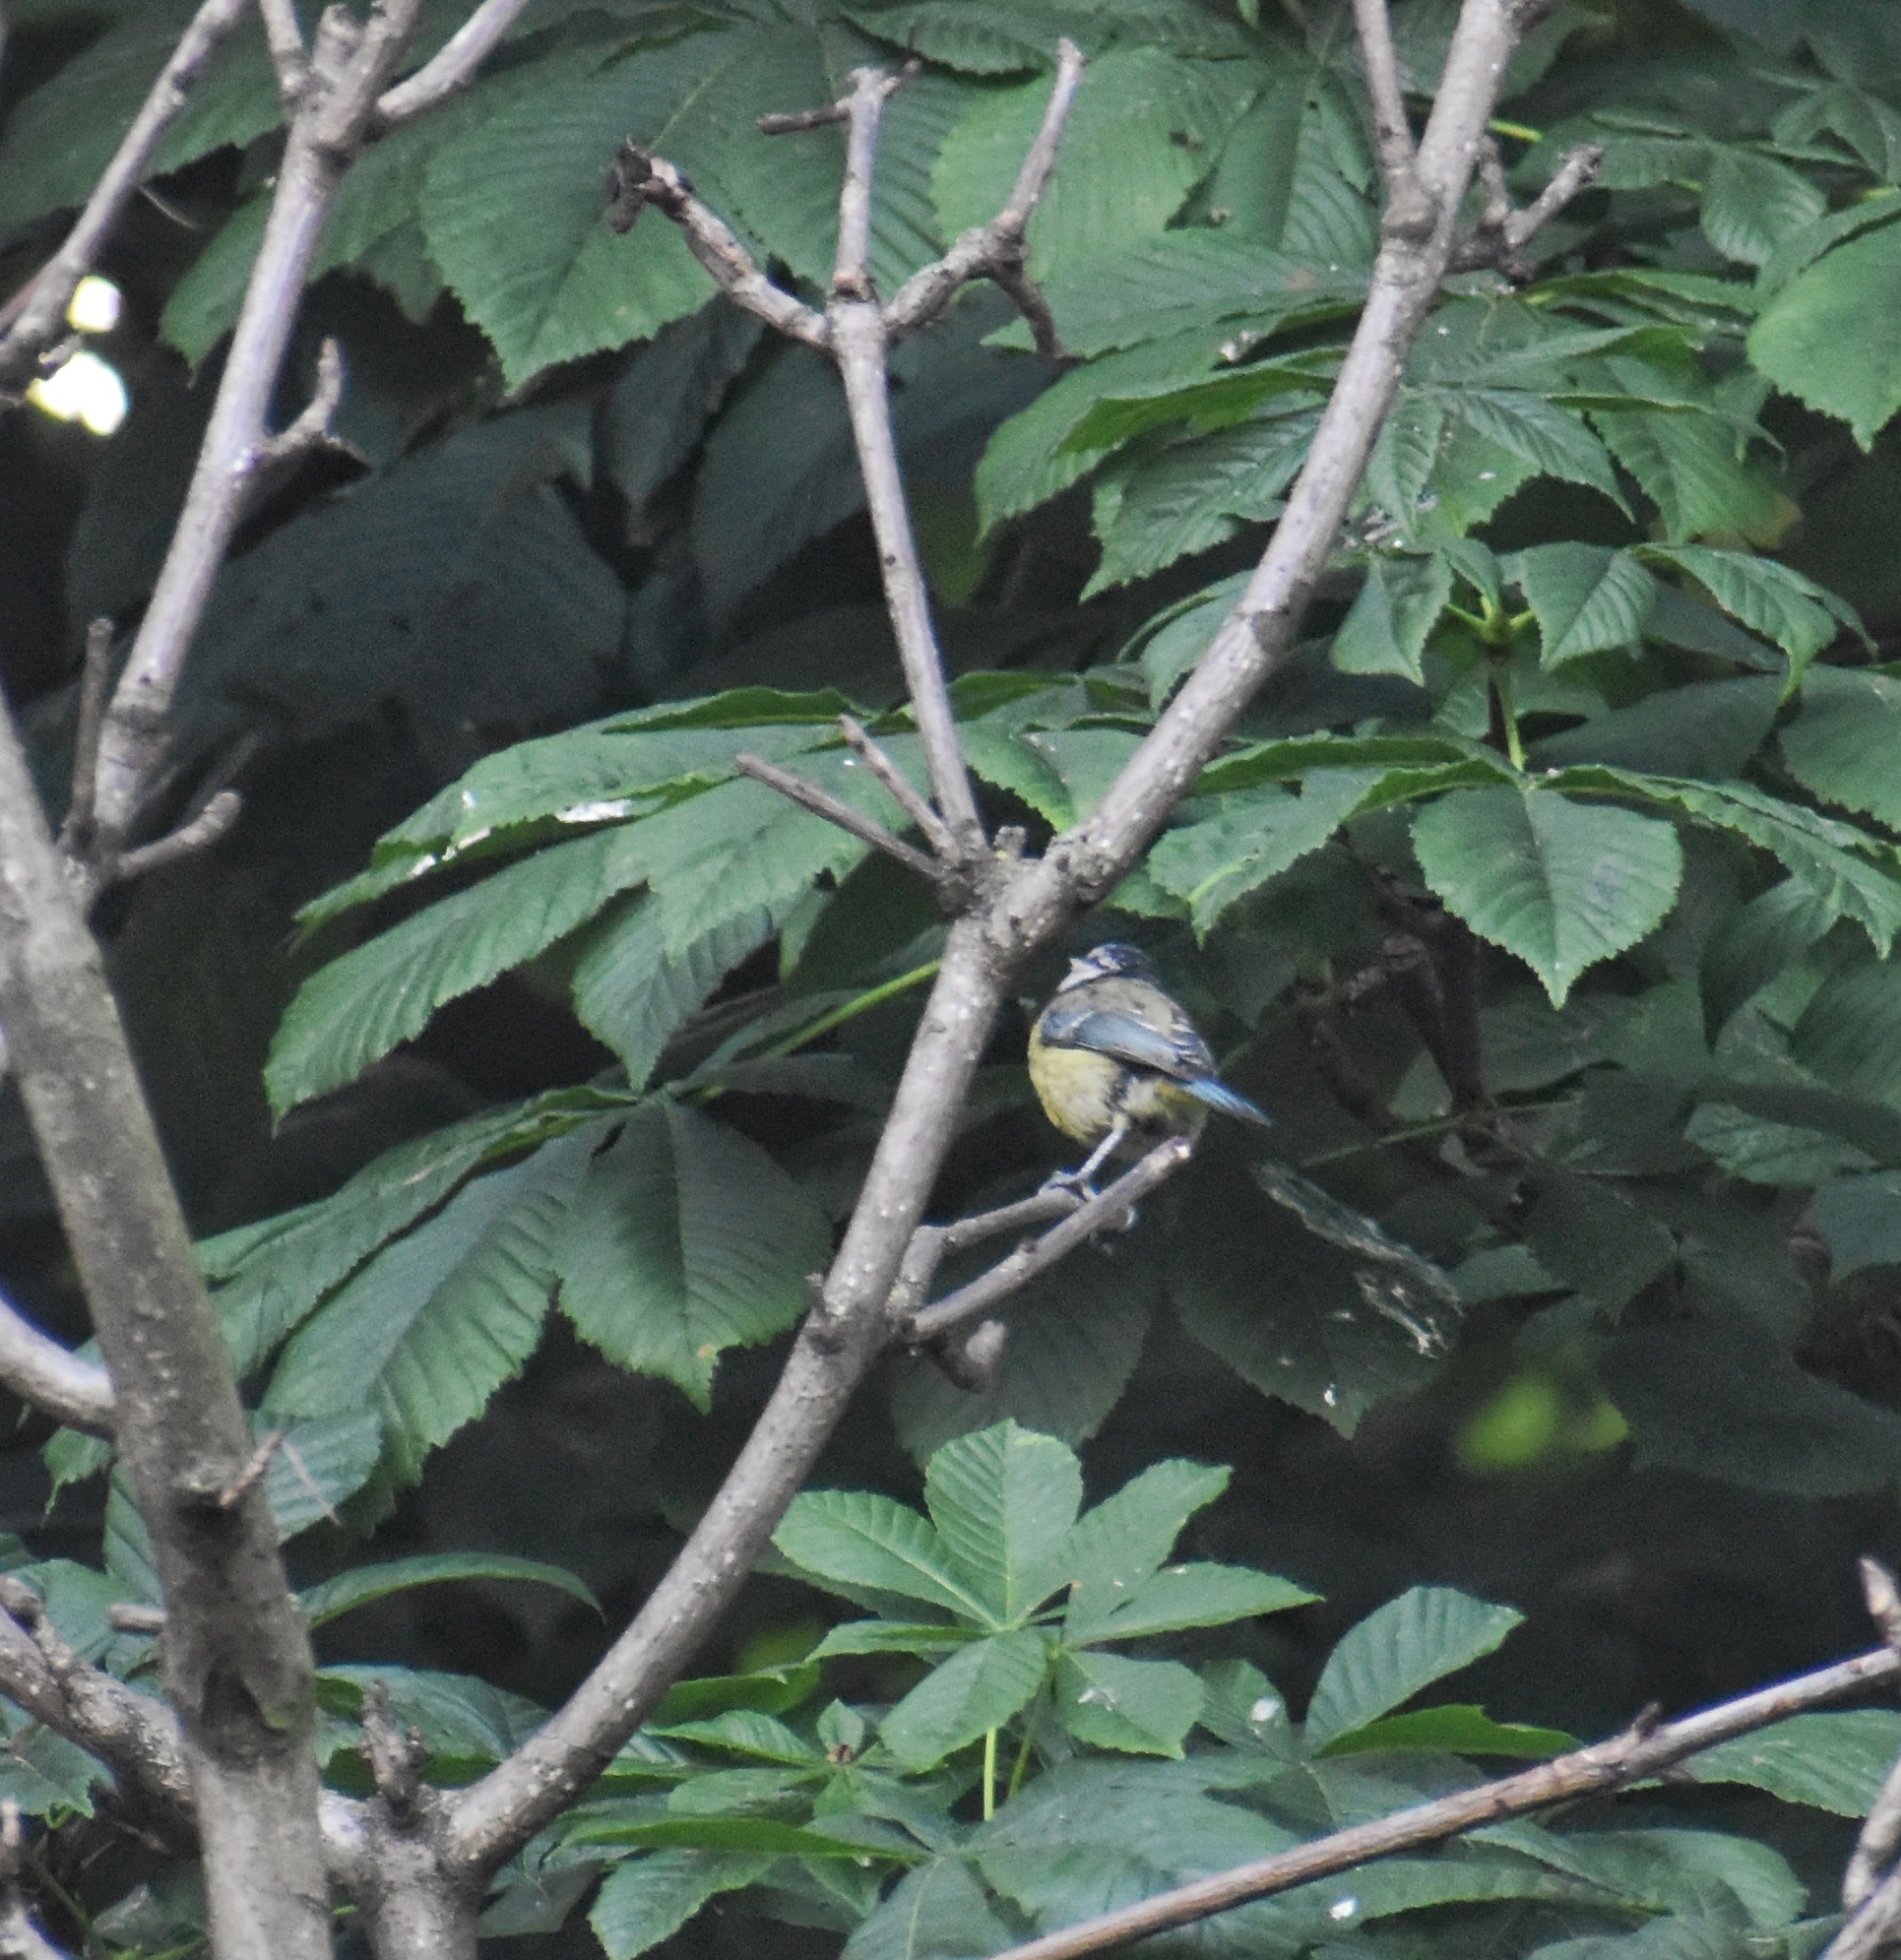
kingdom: Animalia
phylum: Chordata
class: Aves
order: Passeriformes
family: Paridae
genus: Cyanistes
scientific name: Cyanistes caeruleus
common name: Eurasian blue tit
